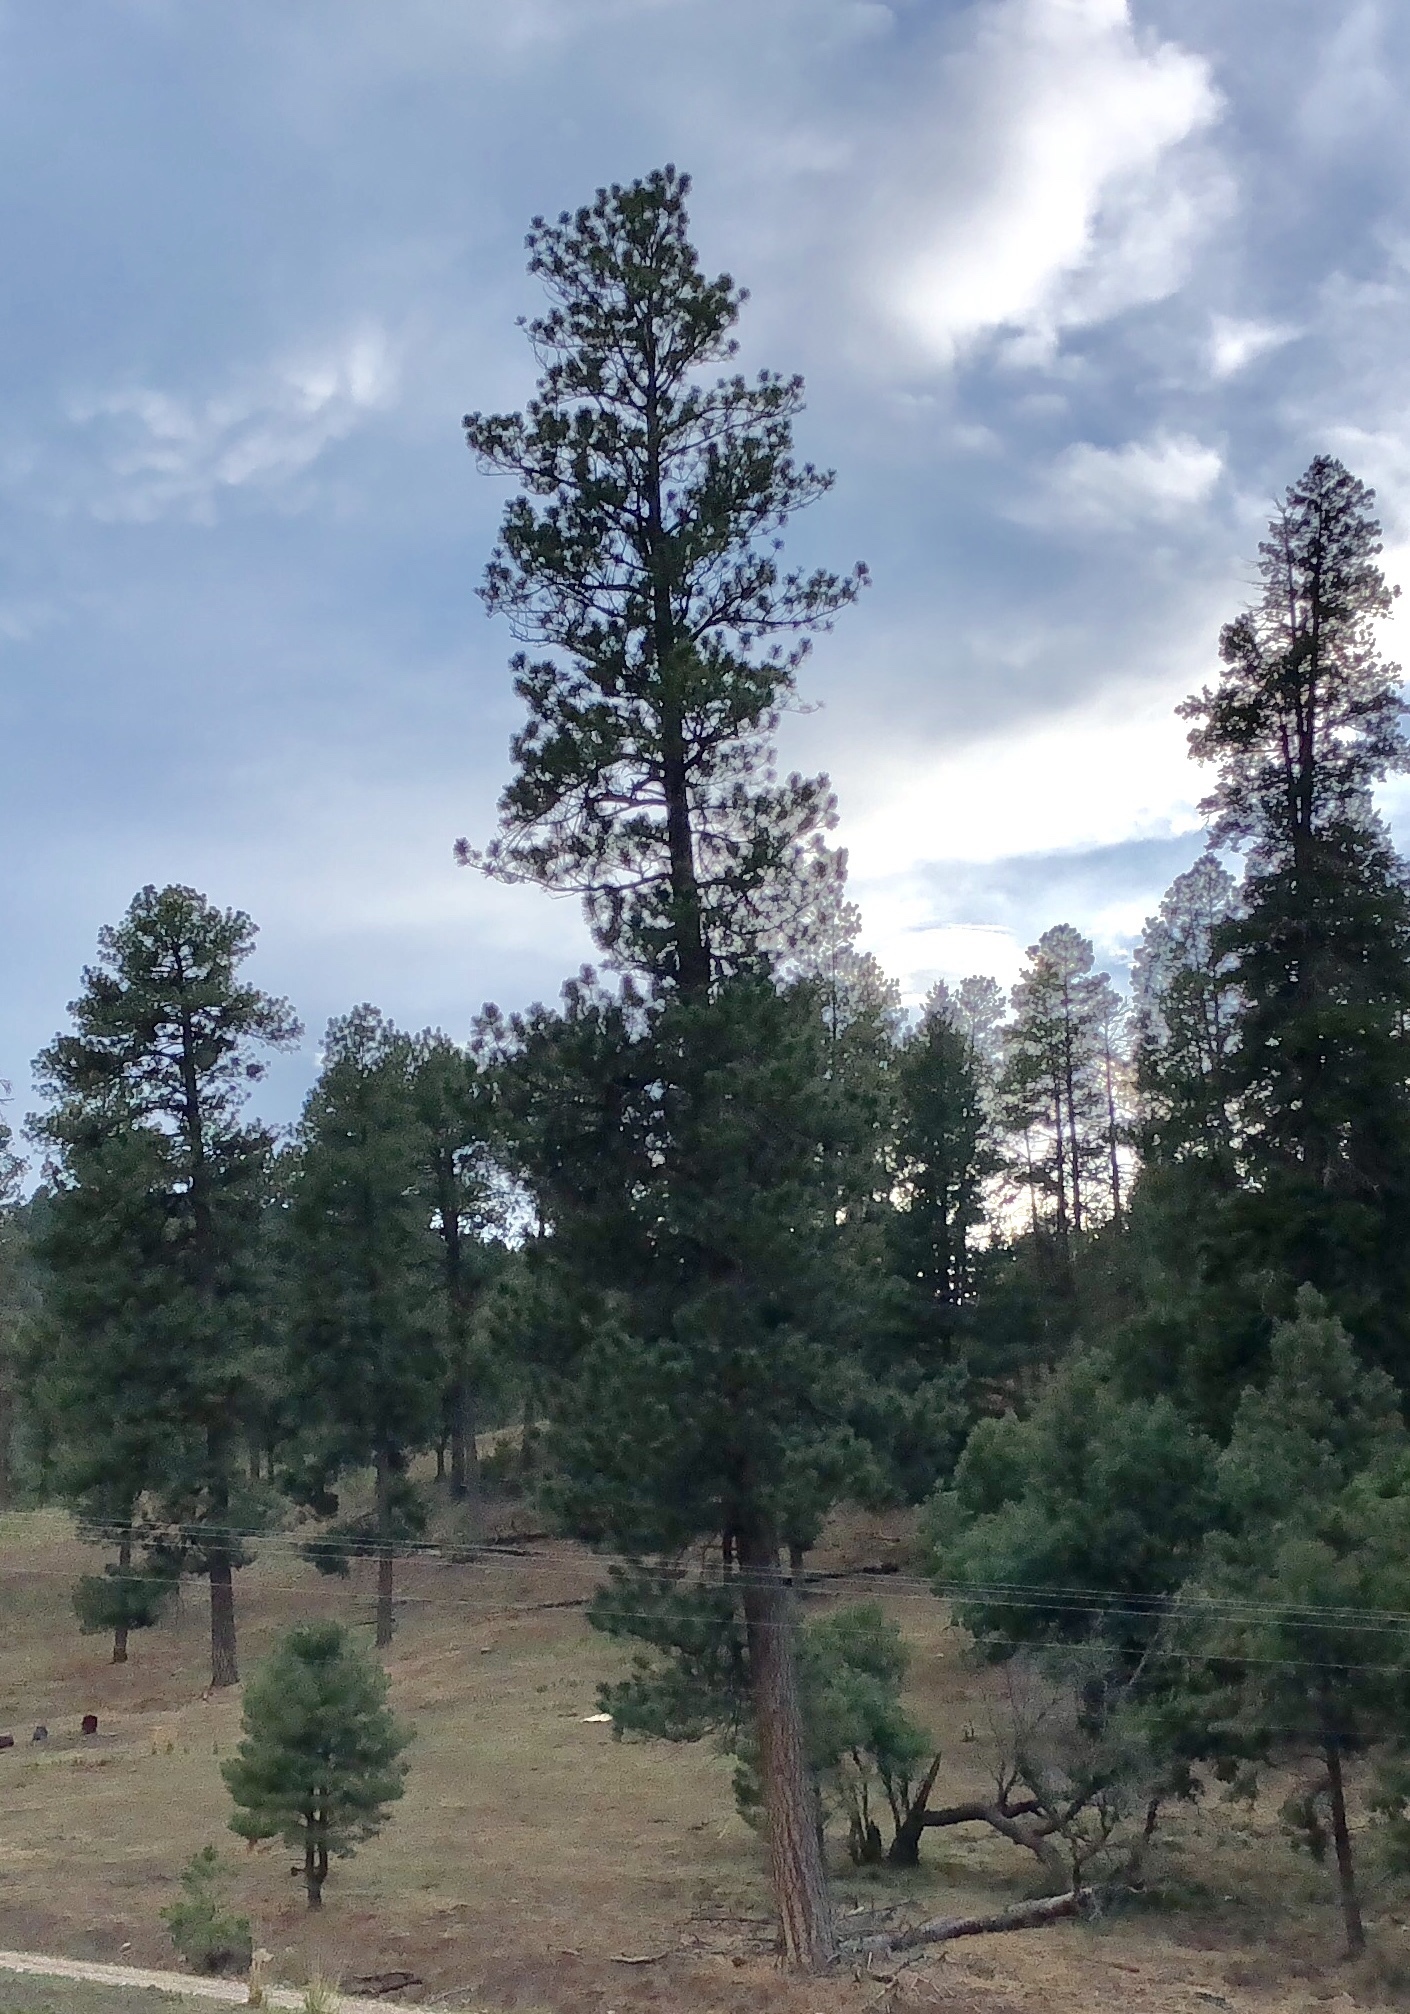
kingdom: Plantae
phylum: Tracheophyta
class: Pinopsida
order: Pinales
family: Pinaceae
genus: Pinus
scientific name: Pinus ponderosa
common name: Western yellow-pine
